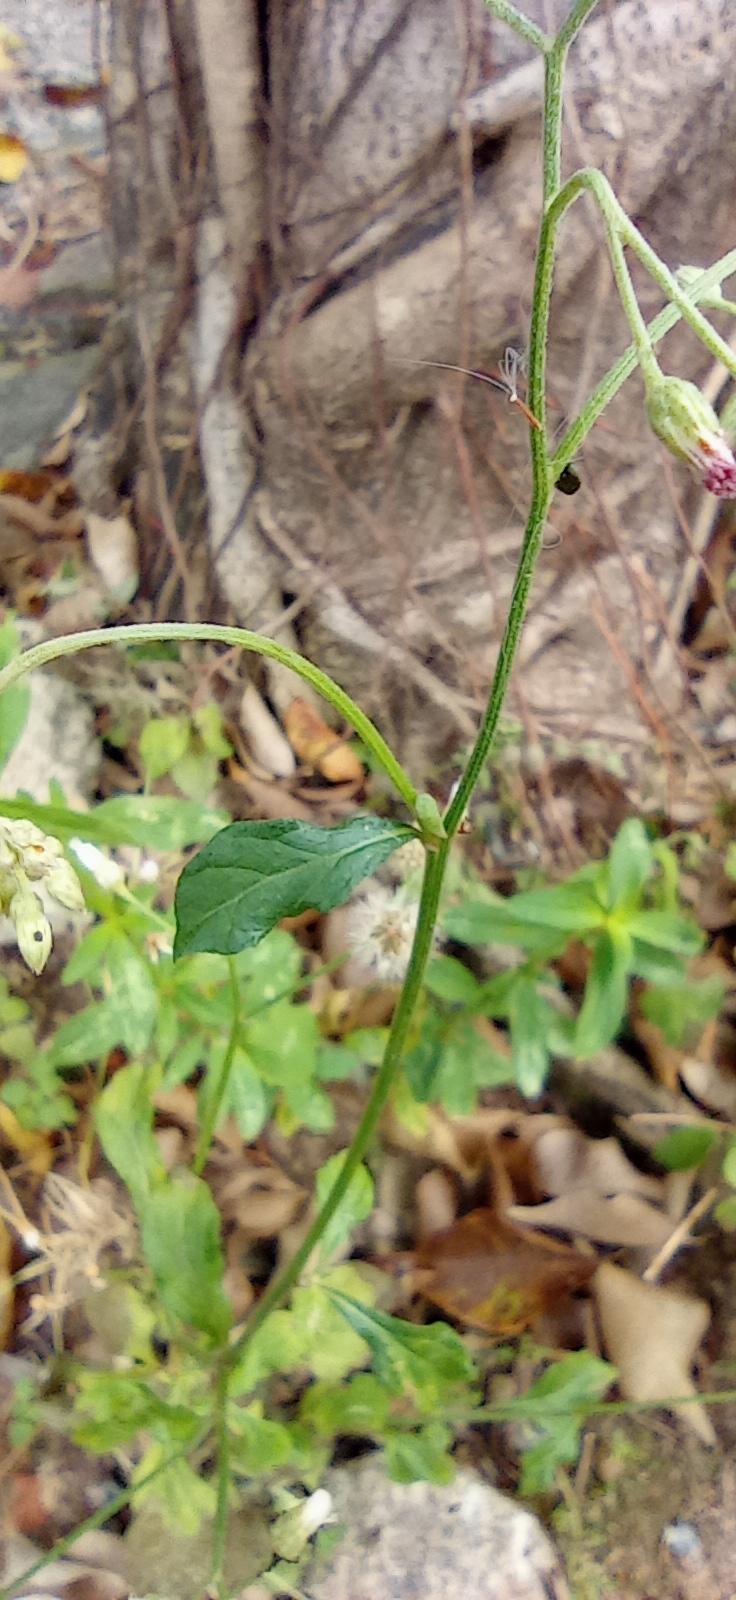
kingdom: Plantae
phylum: Tracheophyta
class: Magnoliopsida
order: Asterales
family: Asteraceae
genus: Cyanthillium
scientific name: Cyanthillium cinereum
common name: Little ironweed
